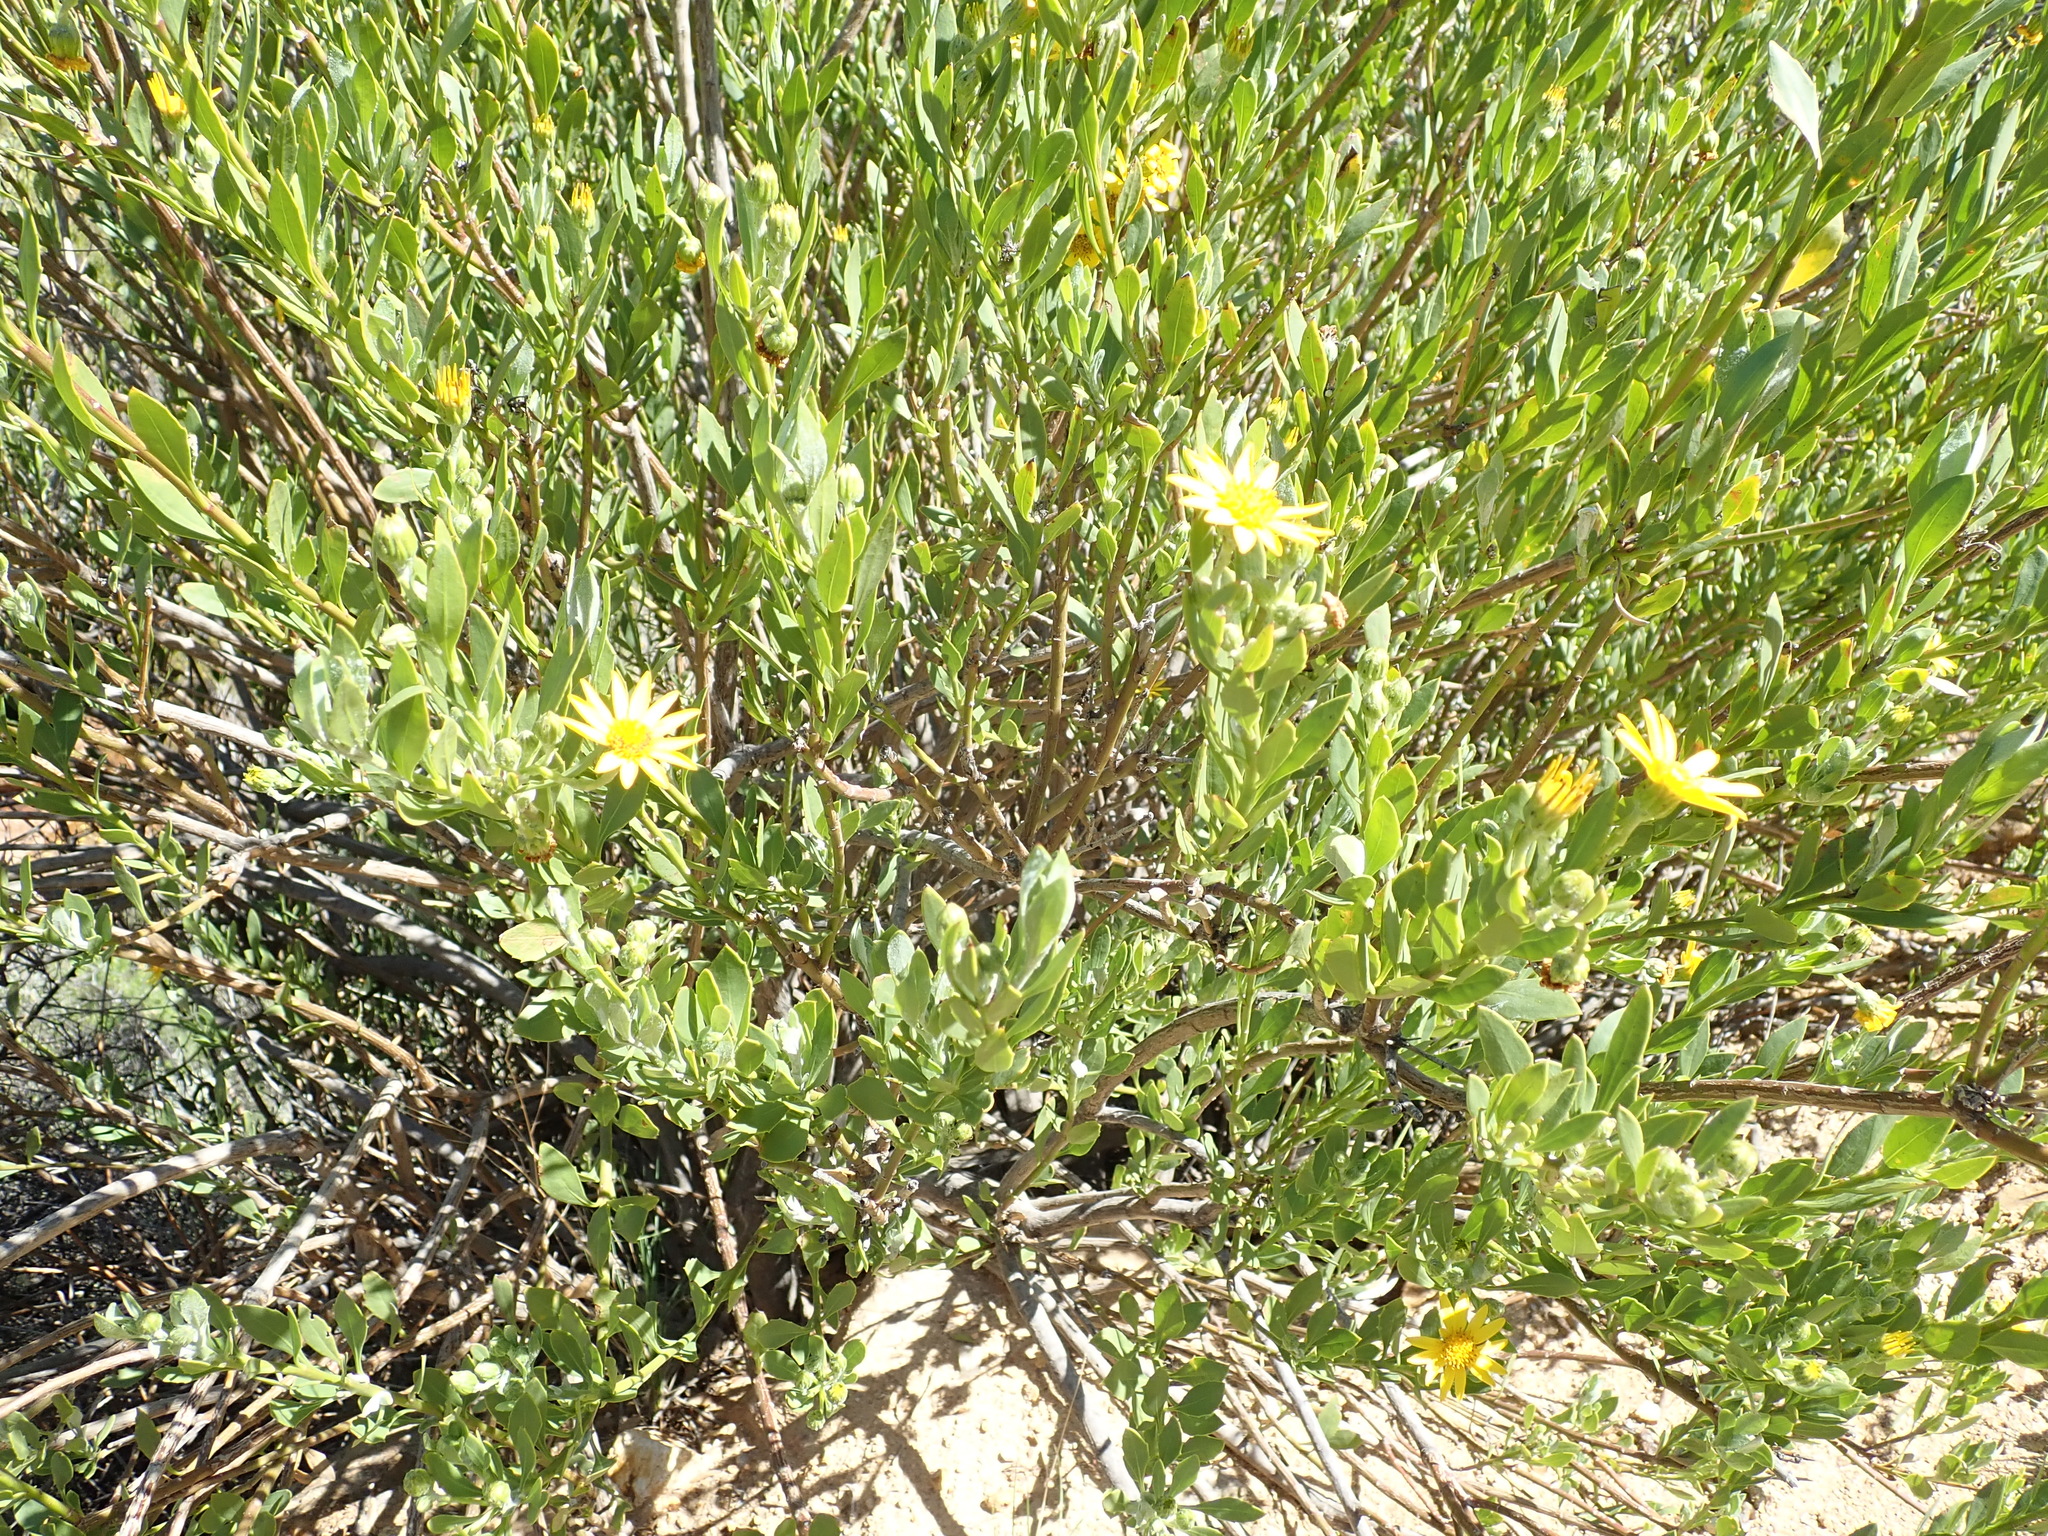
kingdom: Plantae
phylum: Tracheophyta
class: Magnoliopsida
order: Asterales
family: Asteraceae
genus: Osteospermum
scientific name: Osteospermum moniliferum
